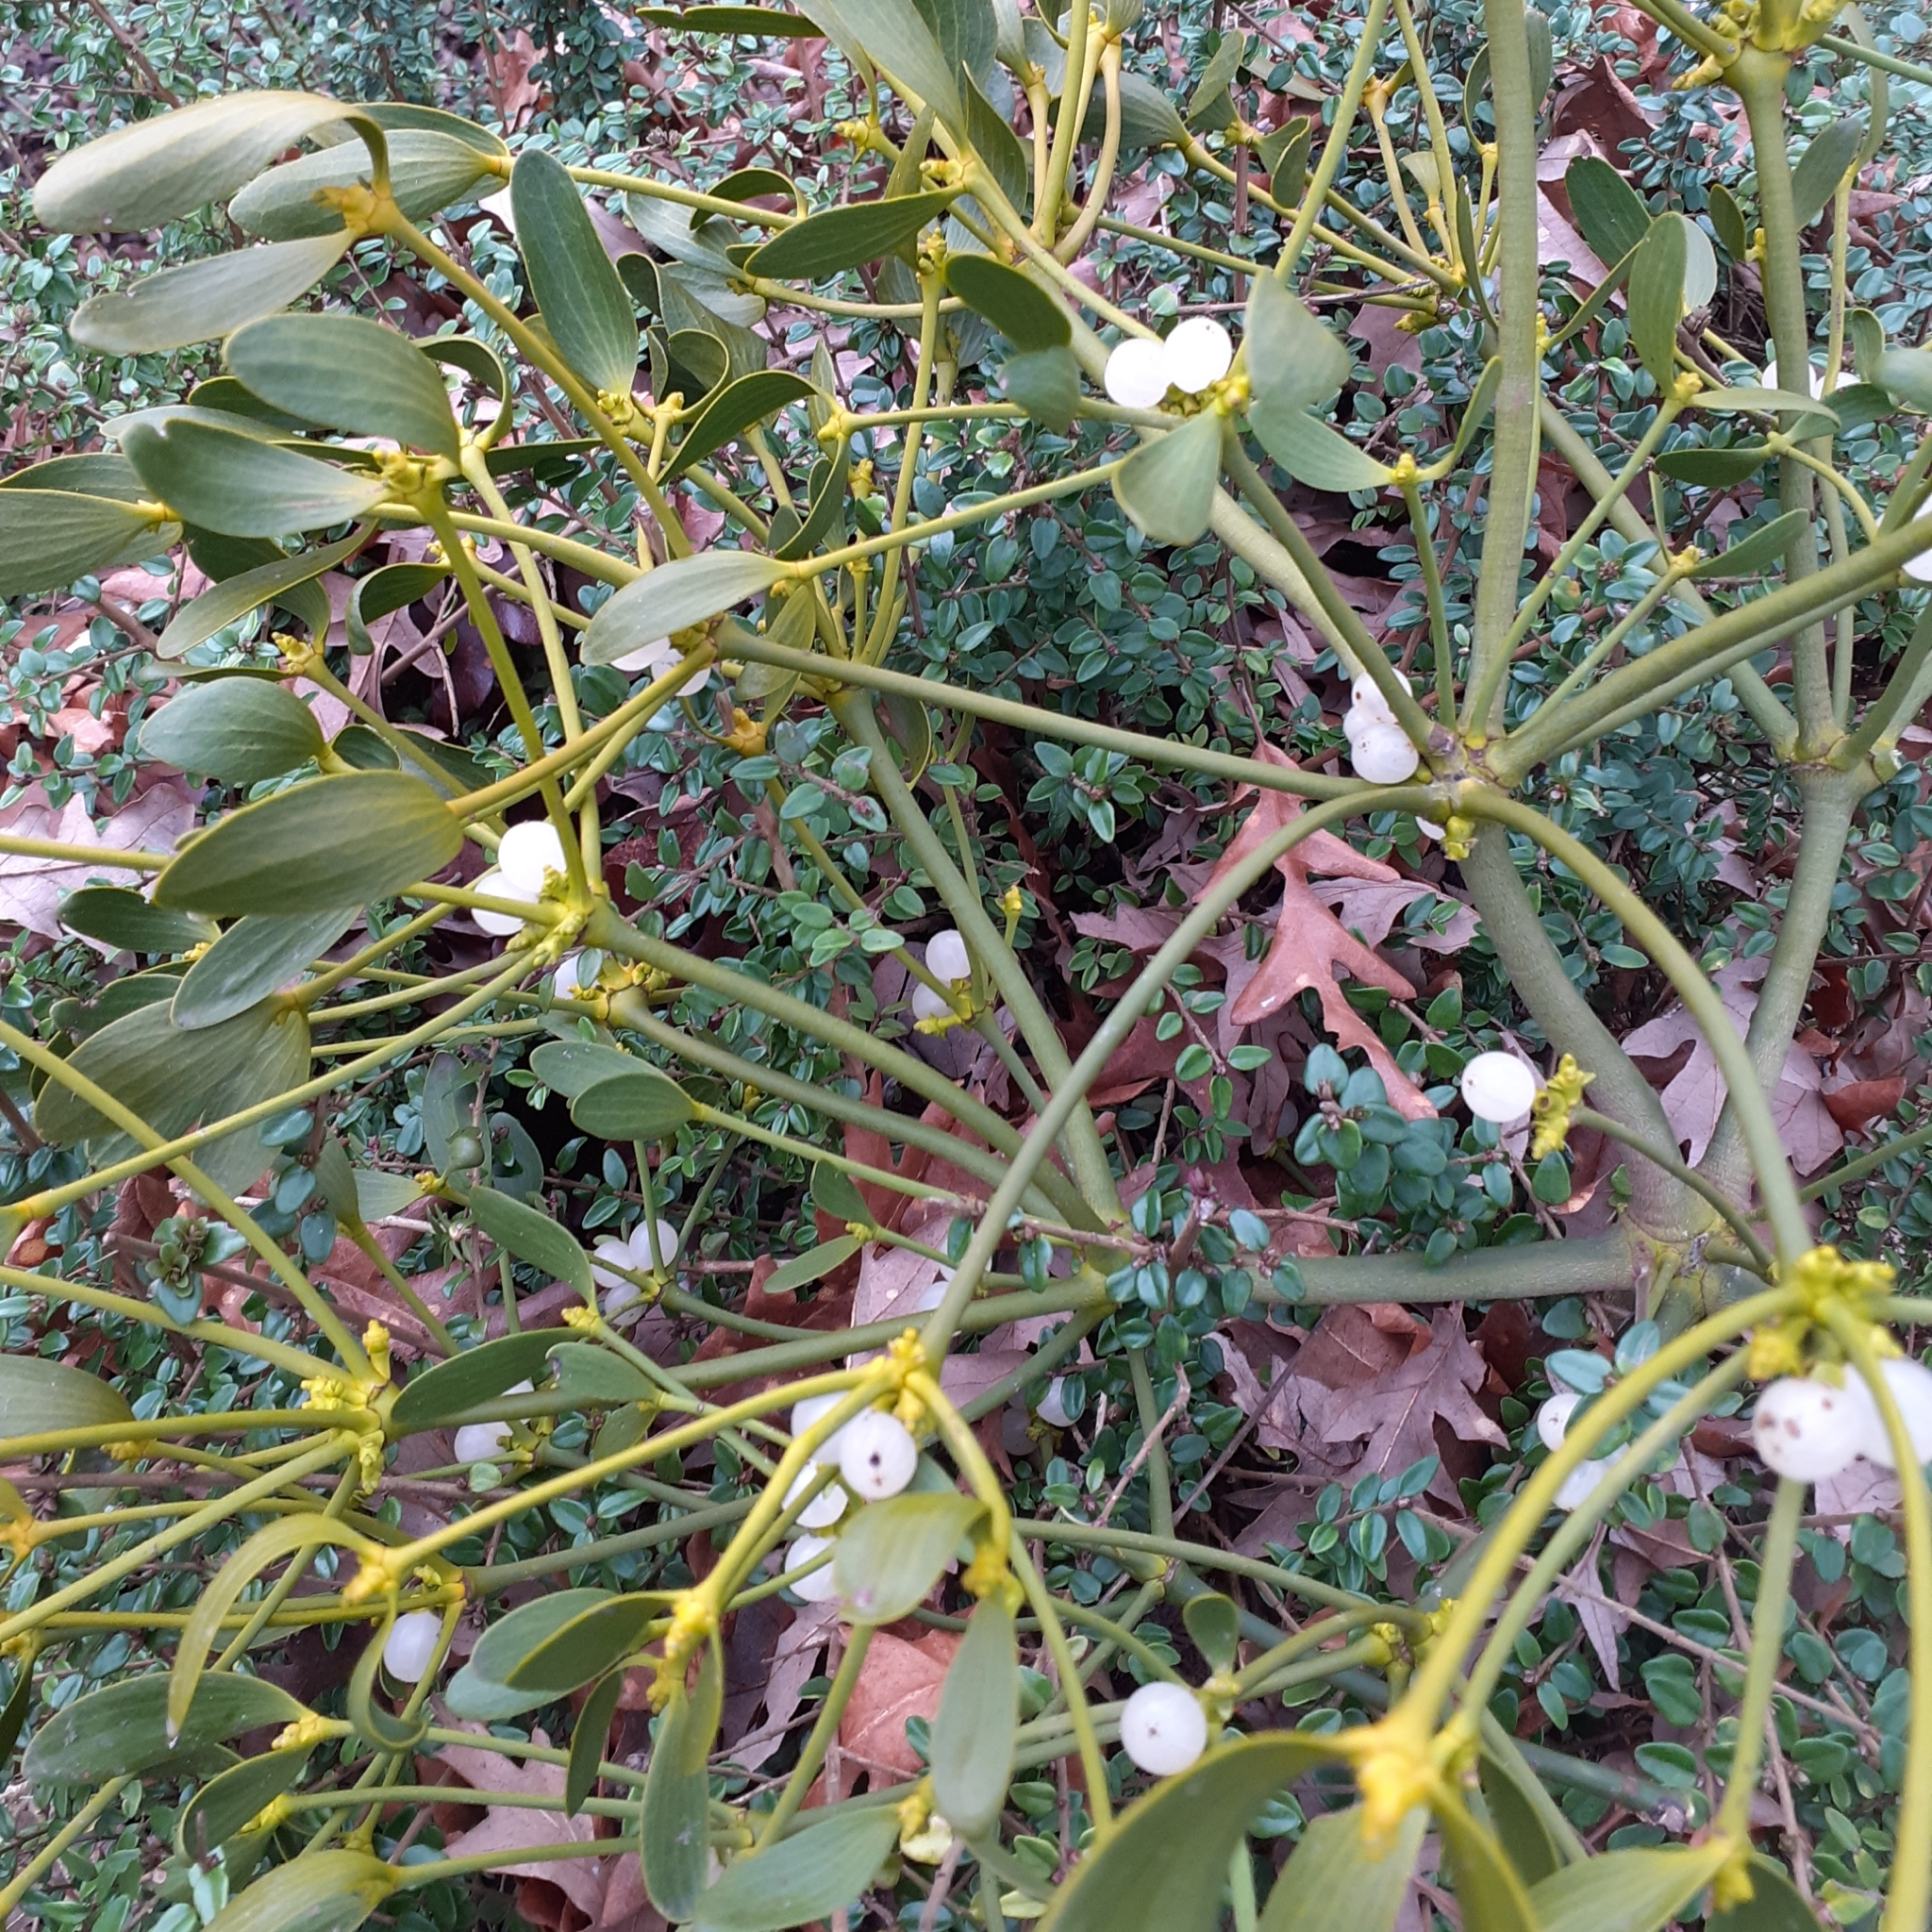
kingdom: Plantae
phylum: Tracheophyta
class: Magnoliopsida
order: Santalales
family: Viscaceae
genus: Viscum
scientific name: Viscum album
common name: Mistletoe
